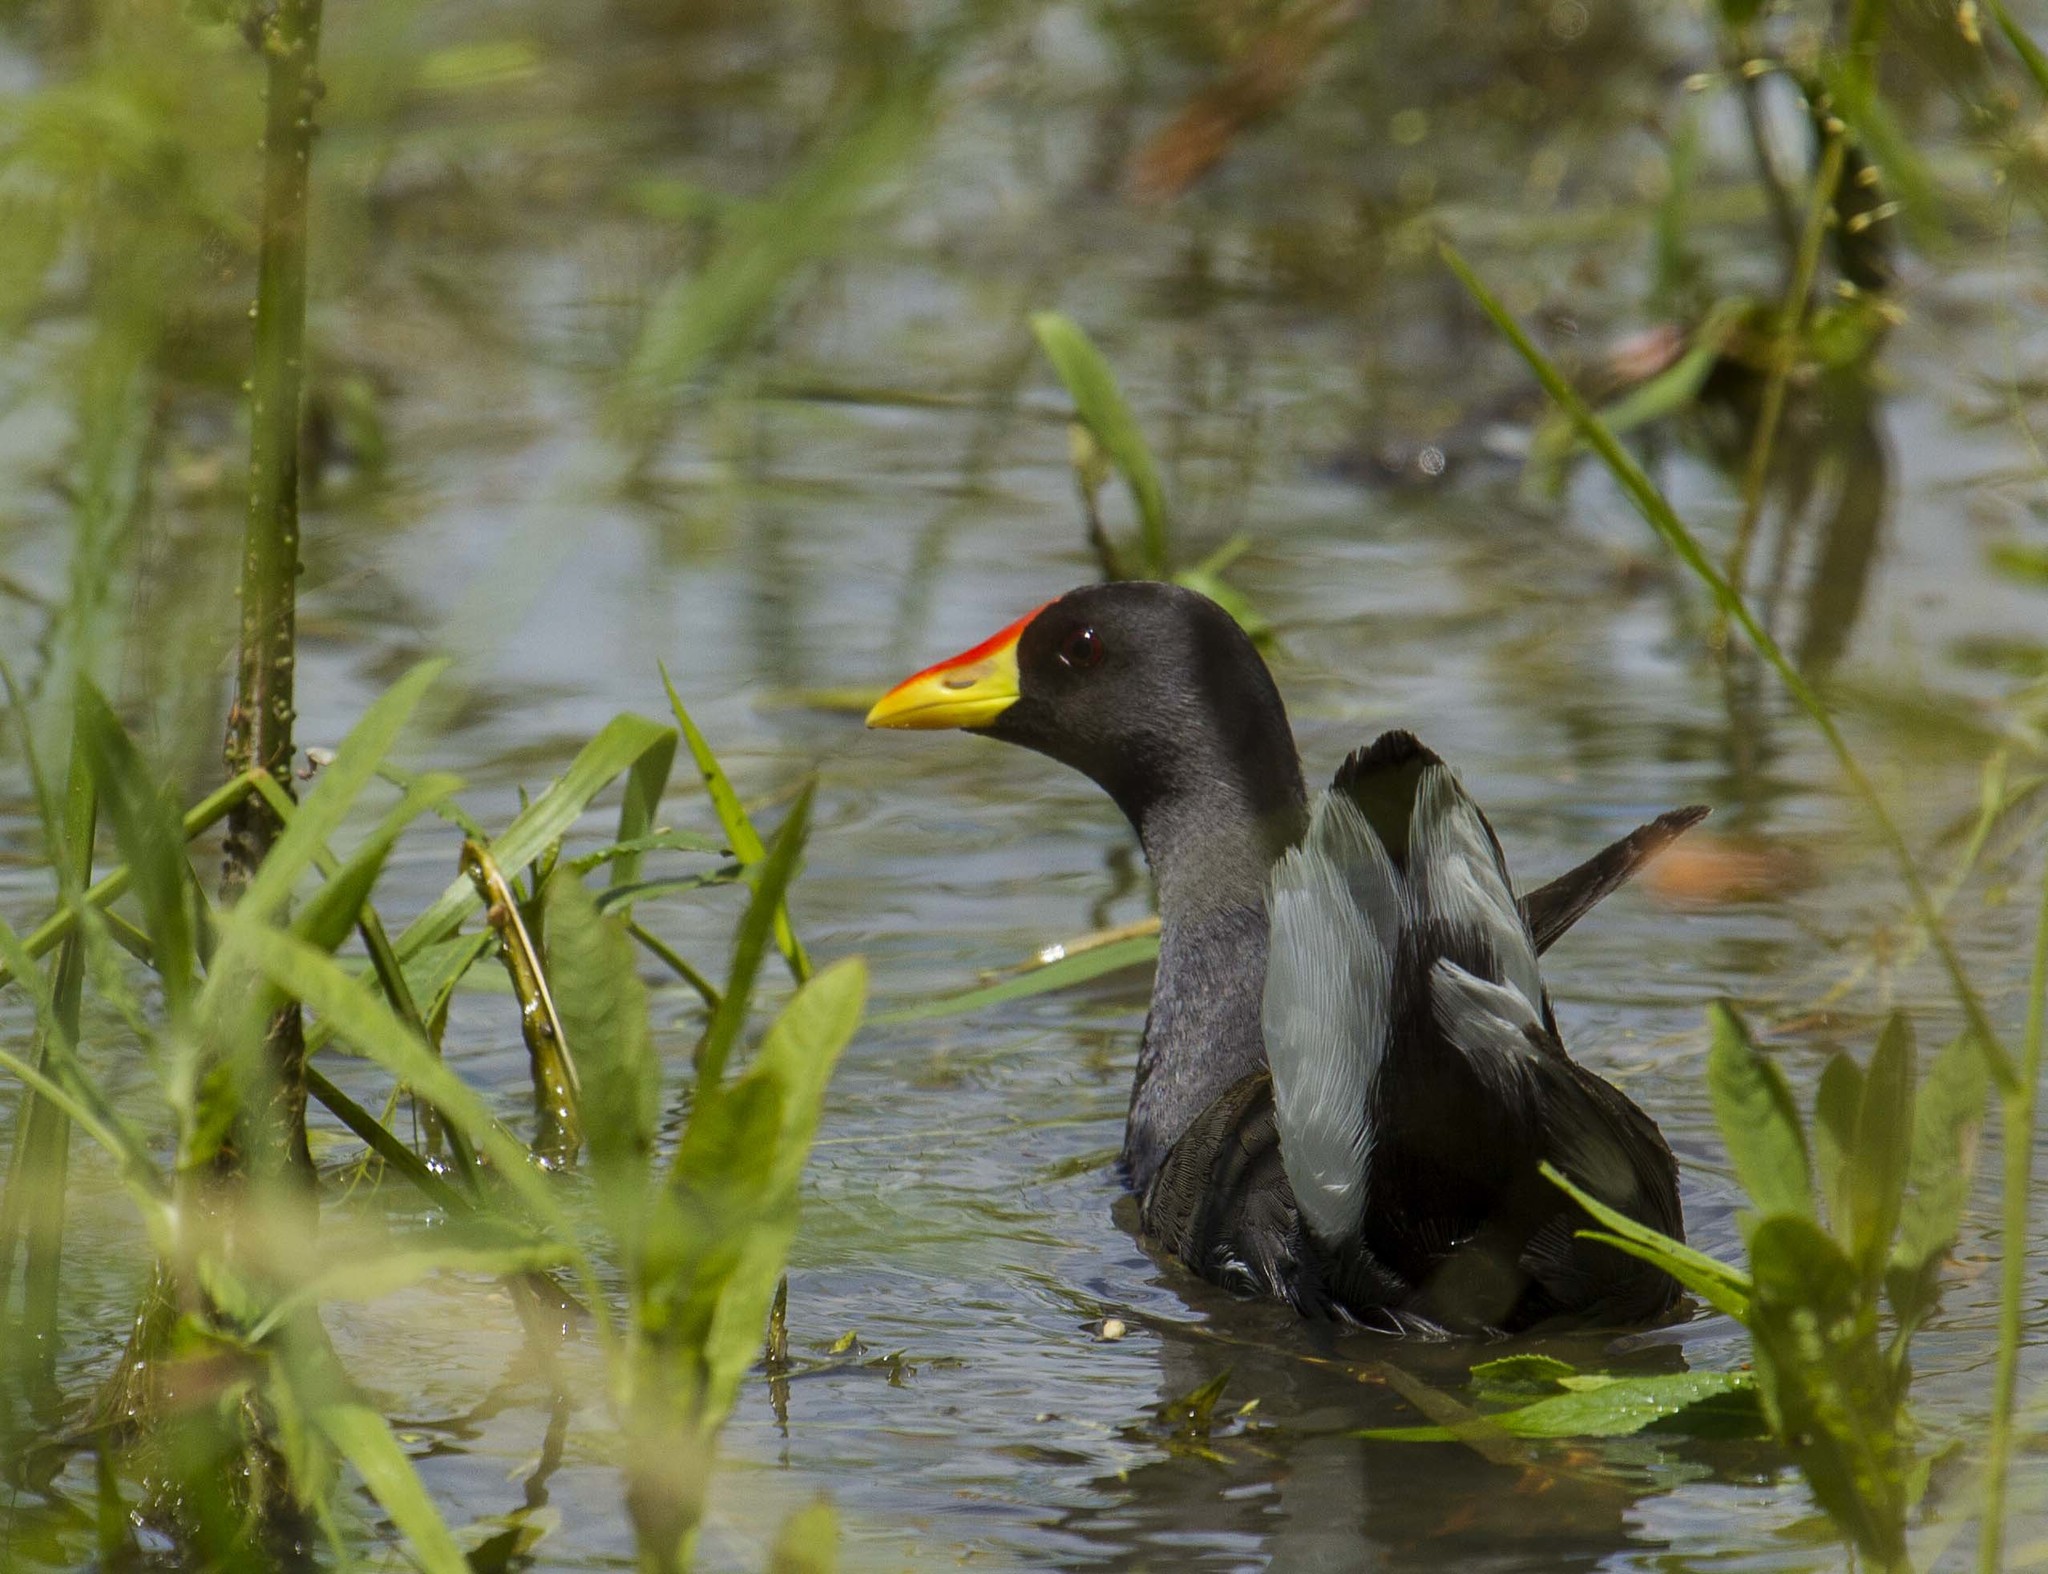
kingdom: Animalia
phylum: Chordata
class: Aves
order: Gruiformes
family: Rallidae
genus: Gallinula
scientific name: Gallinula angulata
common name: Lesser moorhen
